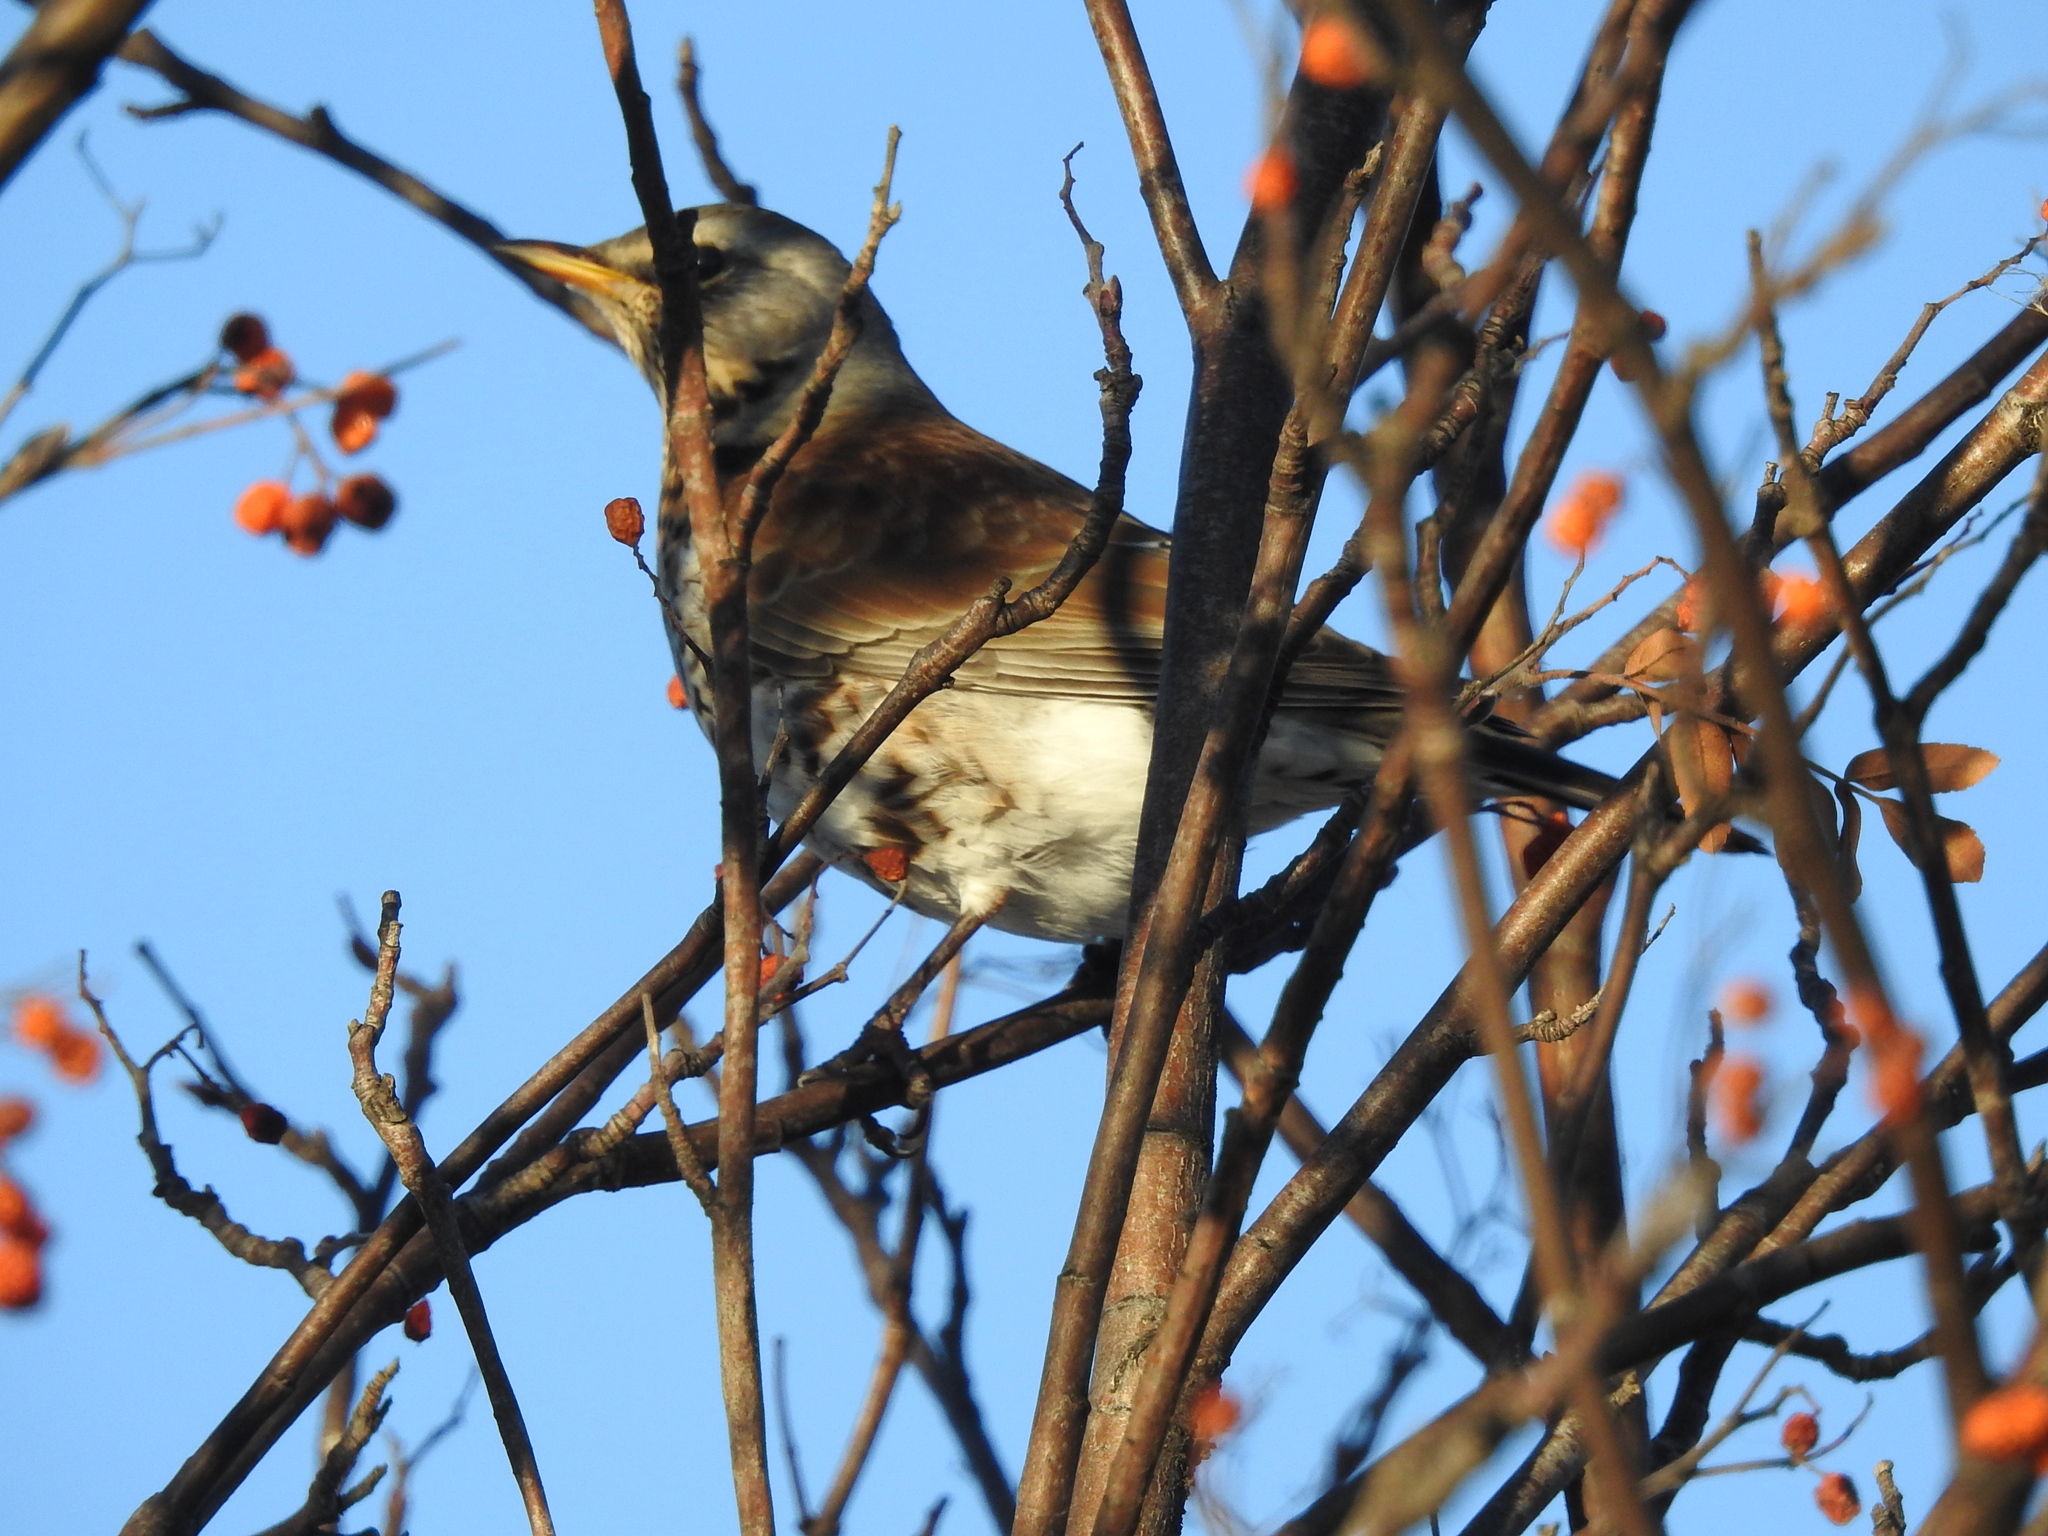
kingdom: Animalia
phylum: Chordata
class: Aves
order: Passeriformes
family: Turdidae
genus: Turdus
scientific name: Turdus pilaris
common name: Fieldfare
